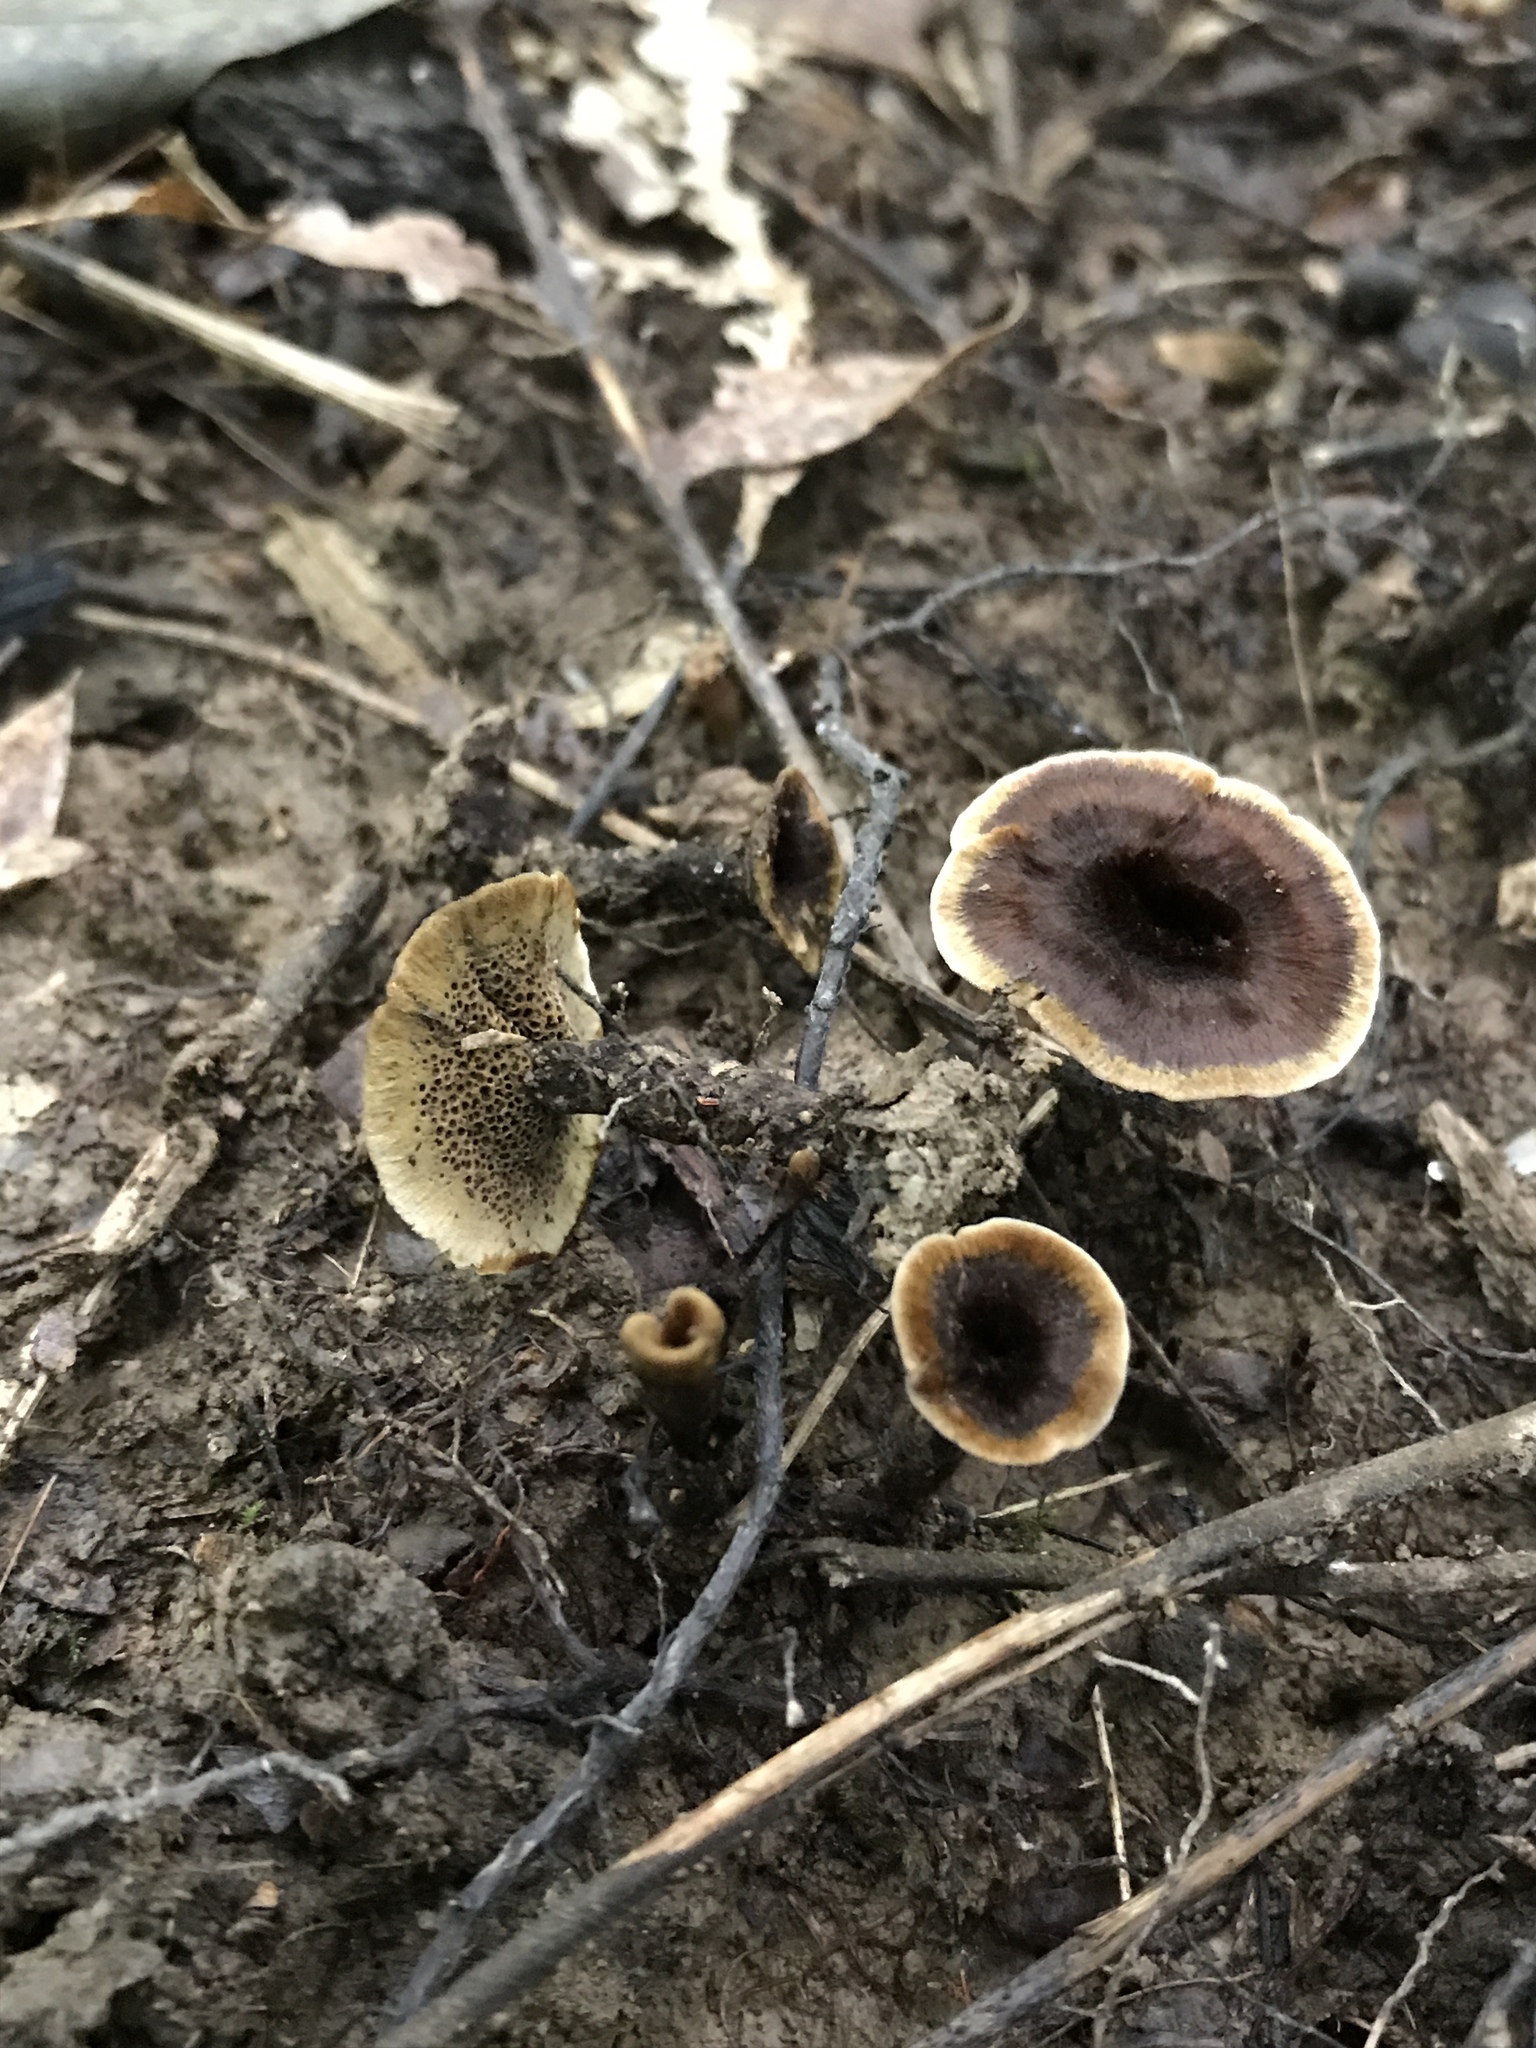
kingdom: Fungi
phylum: Basidiomycota
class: Agaricomycetes
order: Hymenochaetales
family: Hymenochaetaceae
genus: Coltricia
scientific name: Coltricia cinnamomea
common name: Shiny cinnamon polypore
